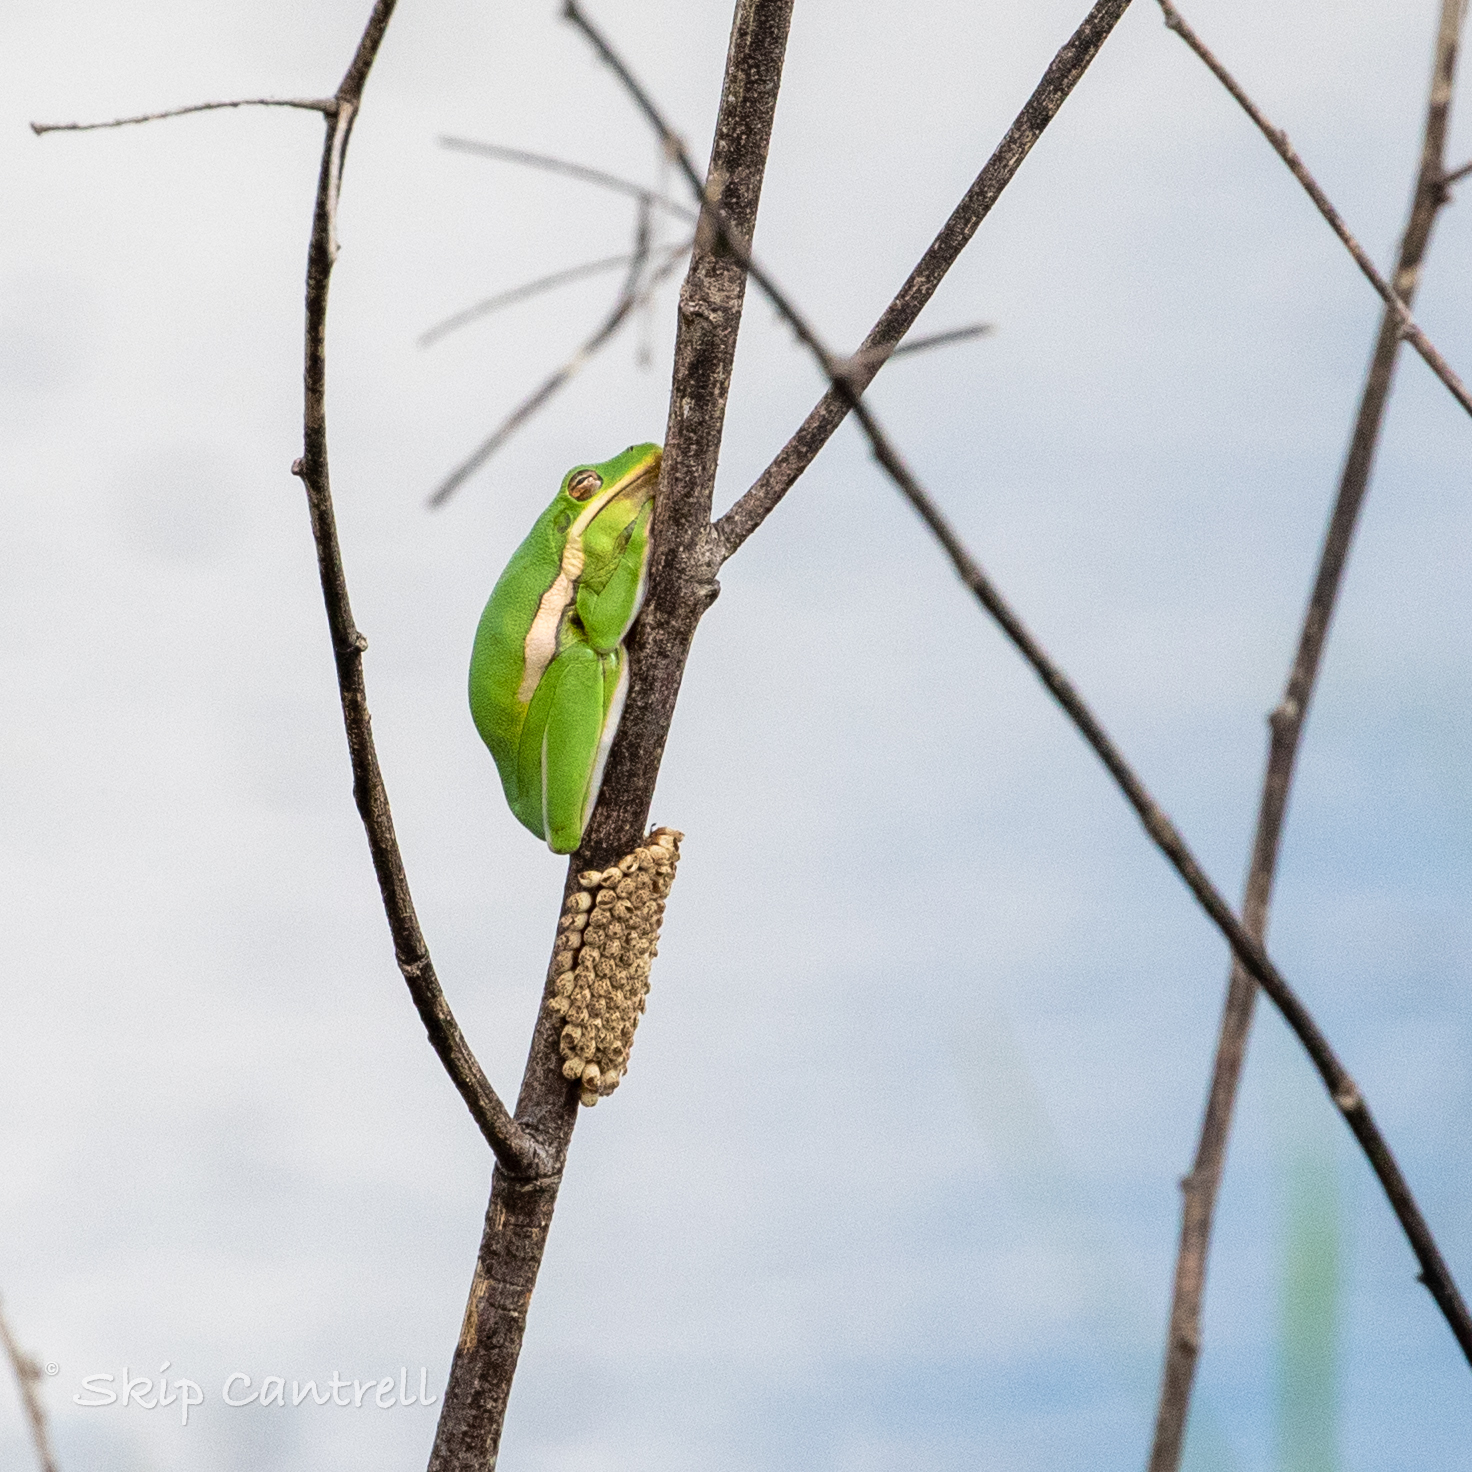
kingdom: Animalia
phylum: Chordata
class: Amphibia
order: Anura
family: Hylidae
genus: Dryophytes
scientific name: Dryophytes cinereus
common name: Green treefrog
